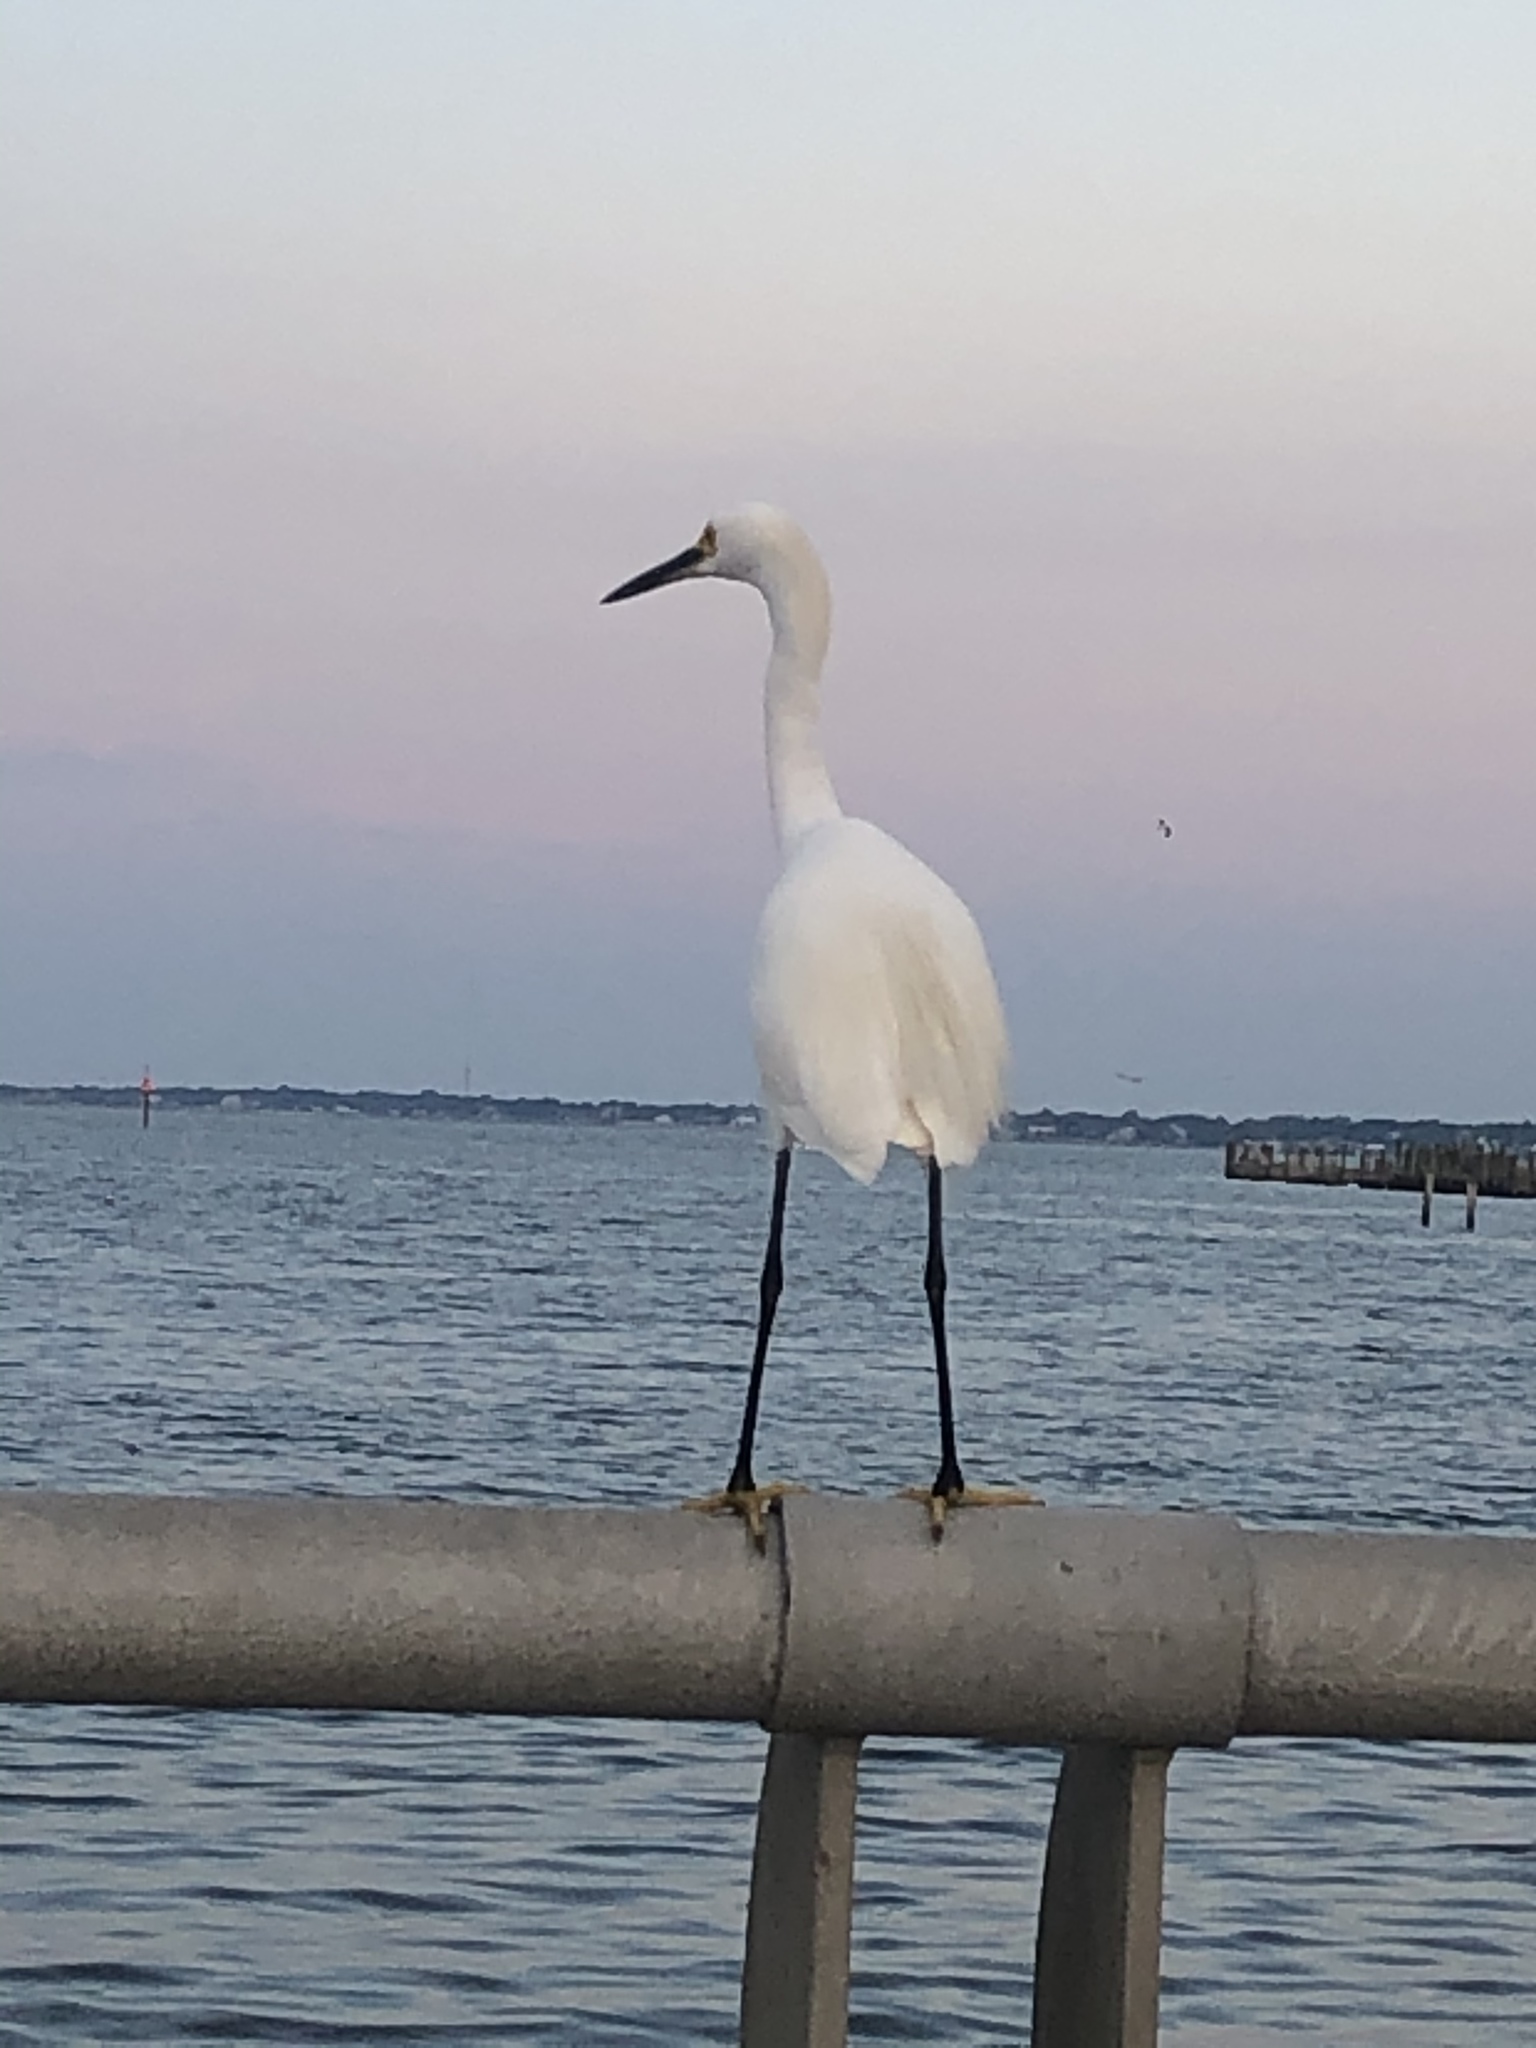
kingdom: Animalia
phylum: Chordata
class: Aves
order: Pelecaniformes
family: Ardeidae
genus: Egretta
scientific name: Egretta thula
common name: Snowy egret
